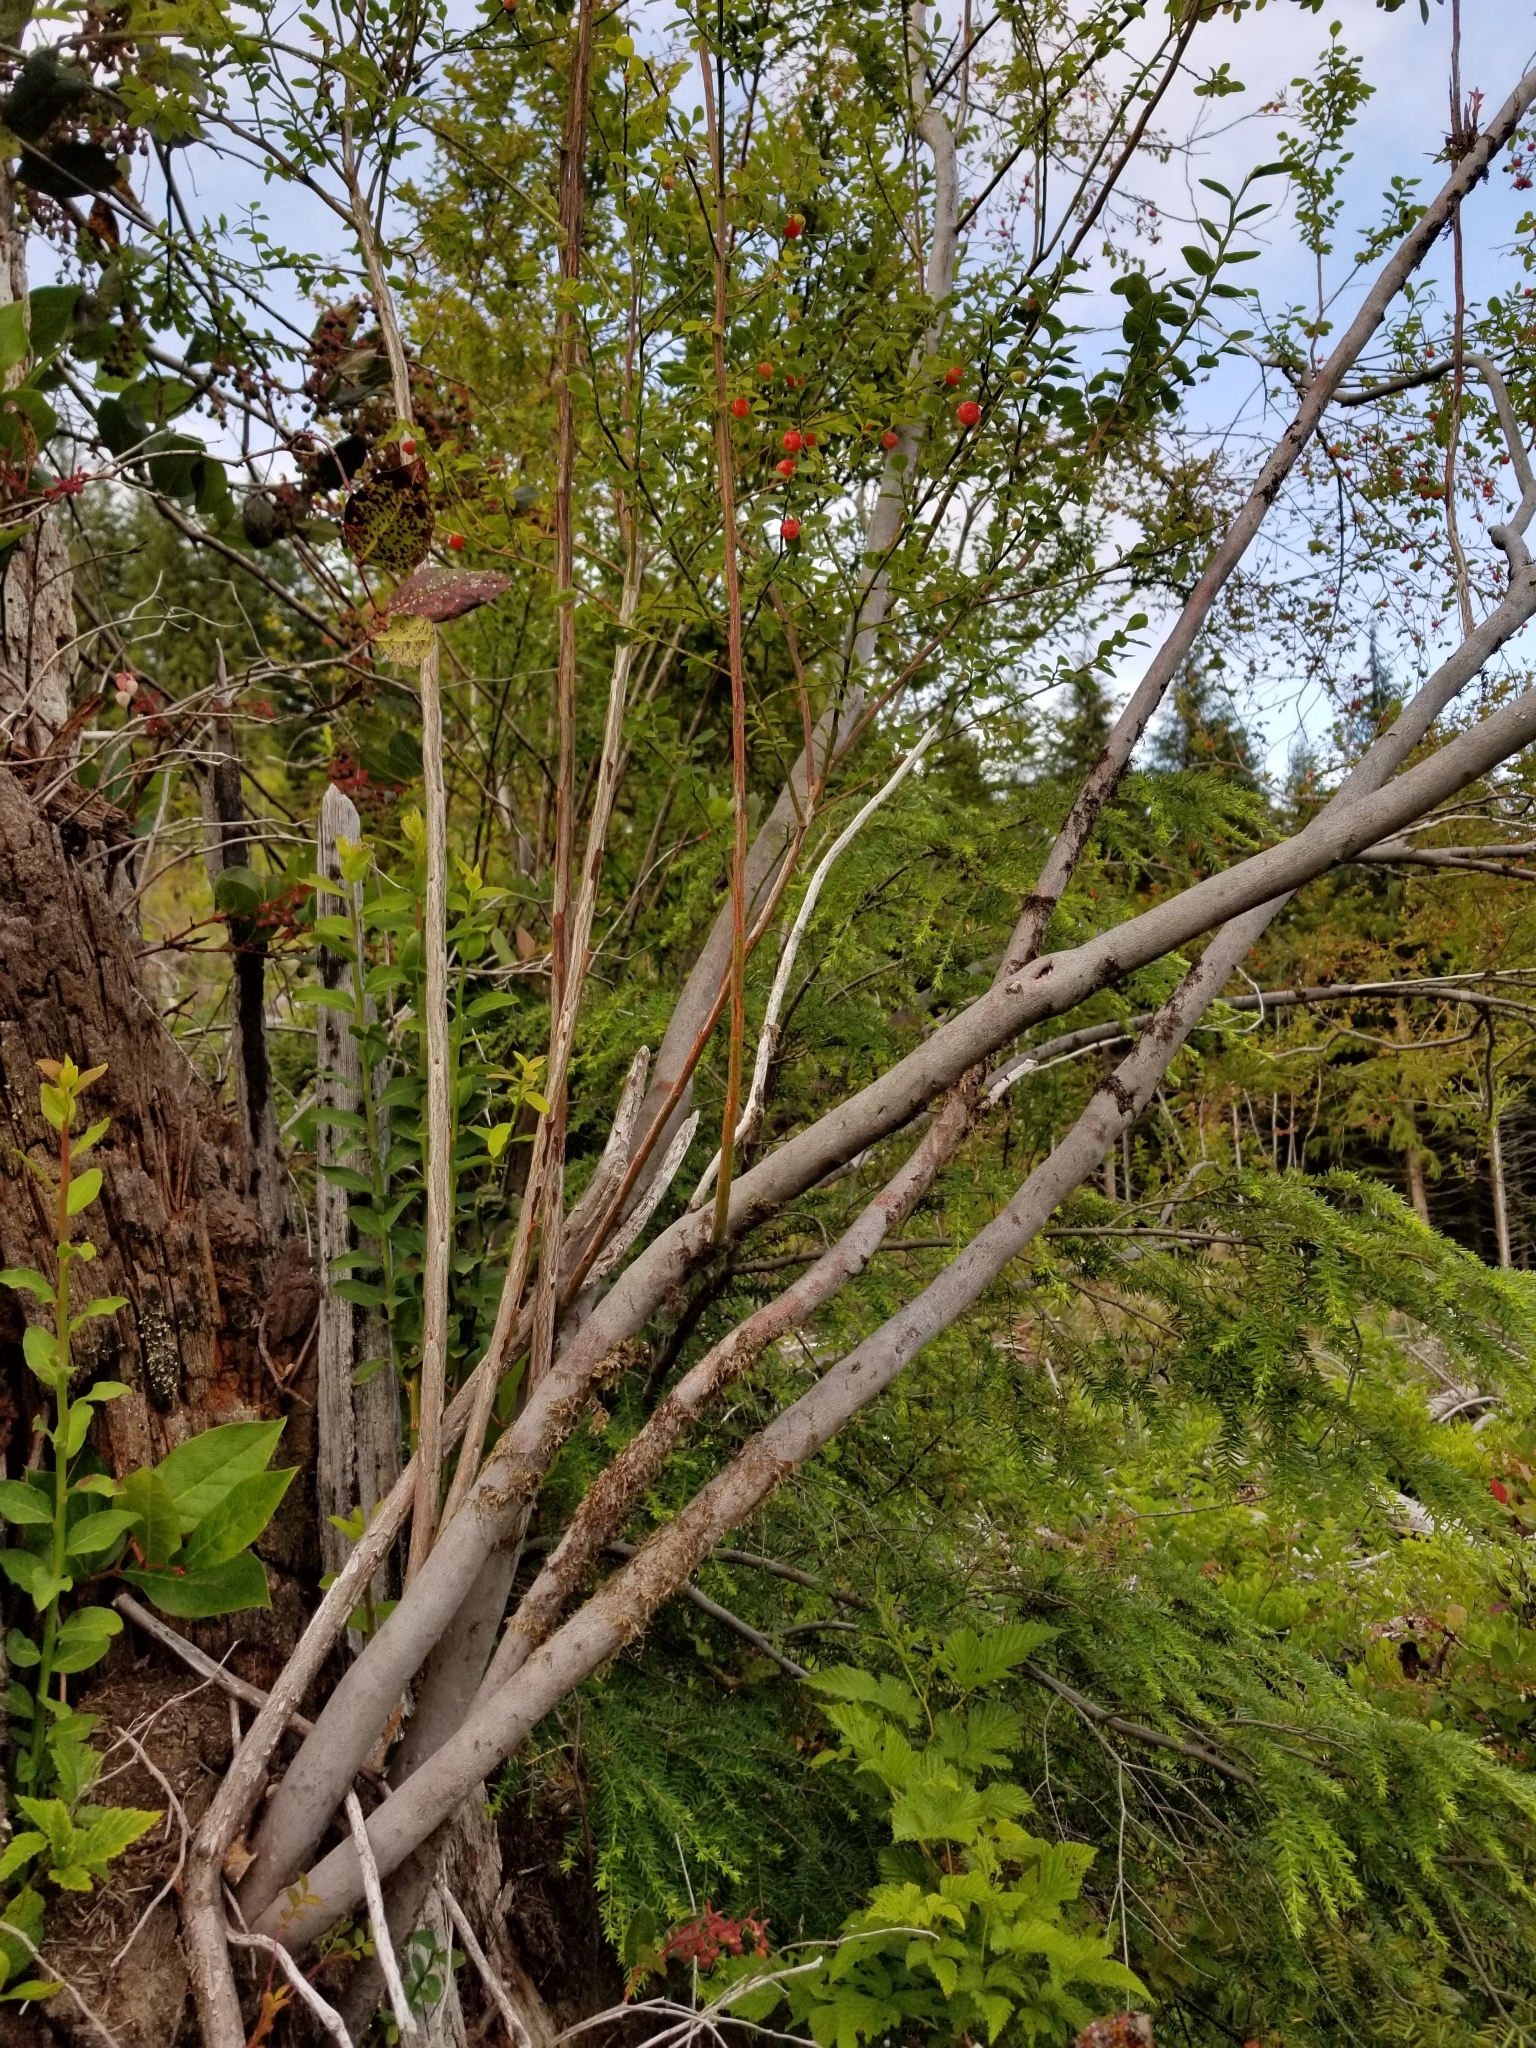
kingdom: Plantae
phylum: Tracheophyta
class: Magnoliopsida
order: Ericales
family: Ericaceae
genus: Vaccinium
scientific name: Vaccinium parvifolium
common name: Red-huckleberry
